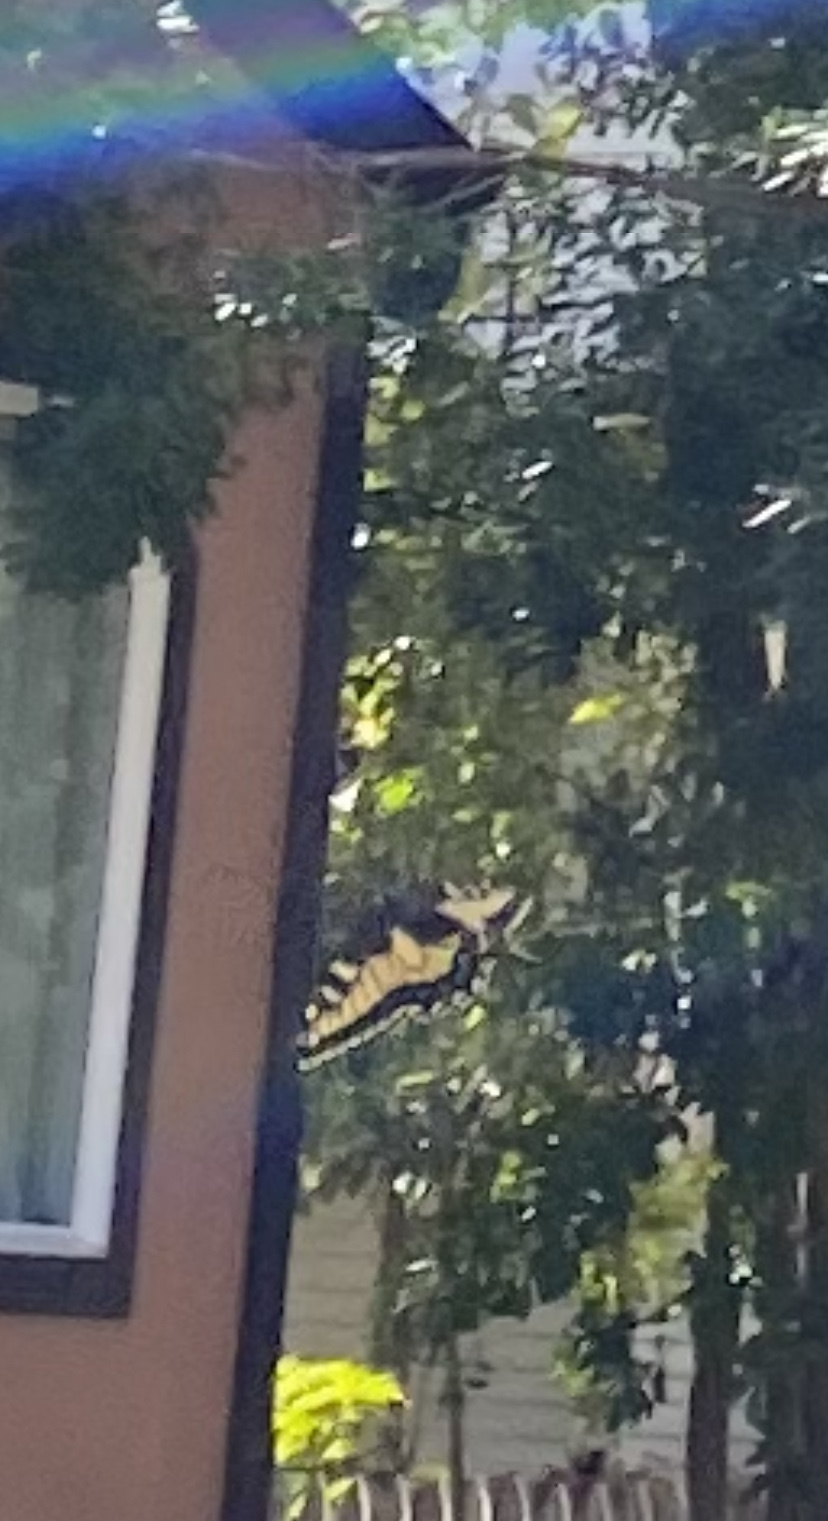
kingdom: Animalia
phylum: Arthropoda
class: Insecta
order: Lepidoptera
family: Papilionidae
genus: Papilio
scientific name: Papilio zelicaon
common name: Anise swallowtail
